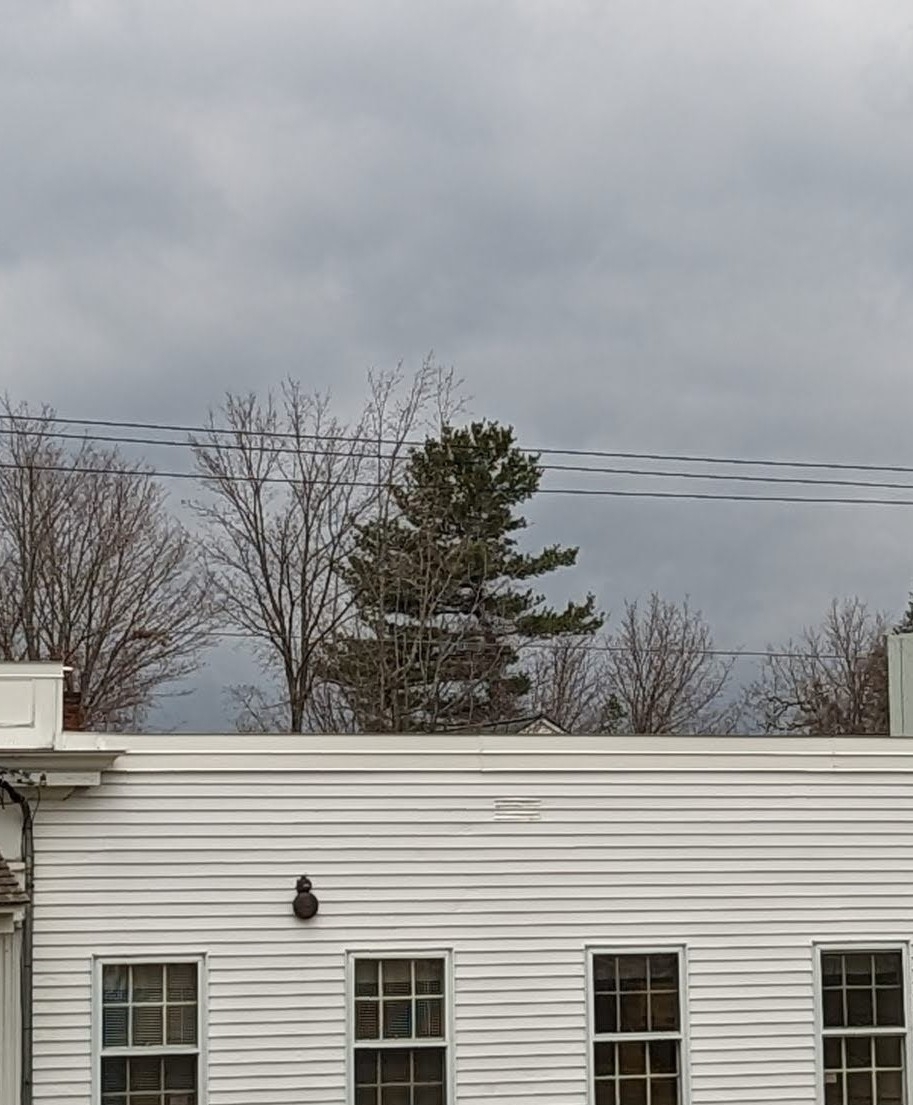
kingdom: Plantae
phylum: Tracheophyta
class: Pinopsida
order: Pinales
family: Pinaceae
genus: Pinus
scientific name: Pinus strobus
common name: Weymouth pine
